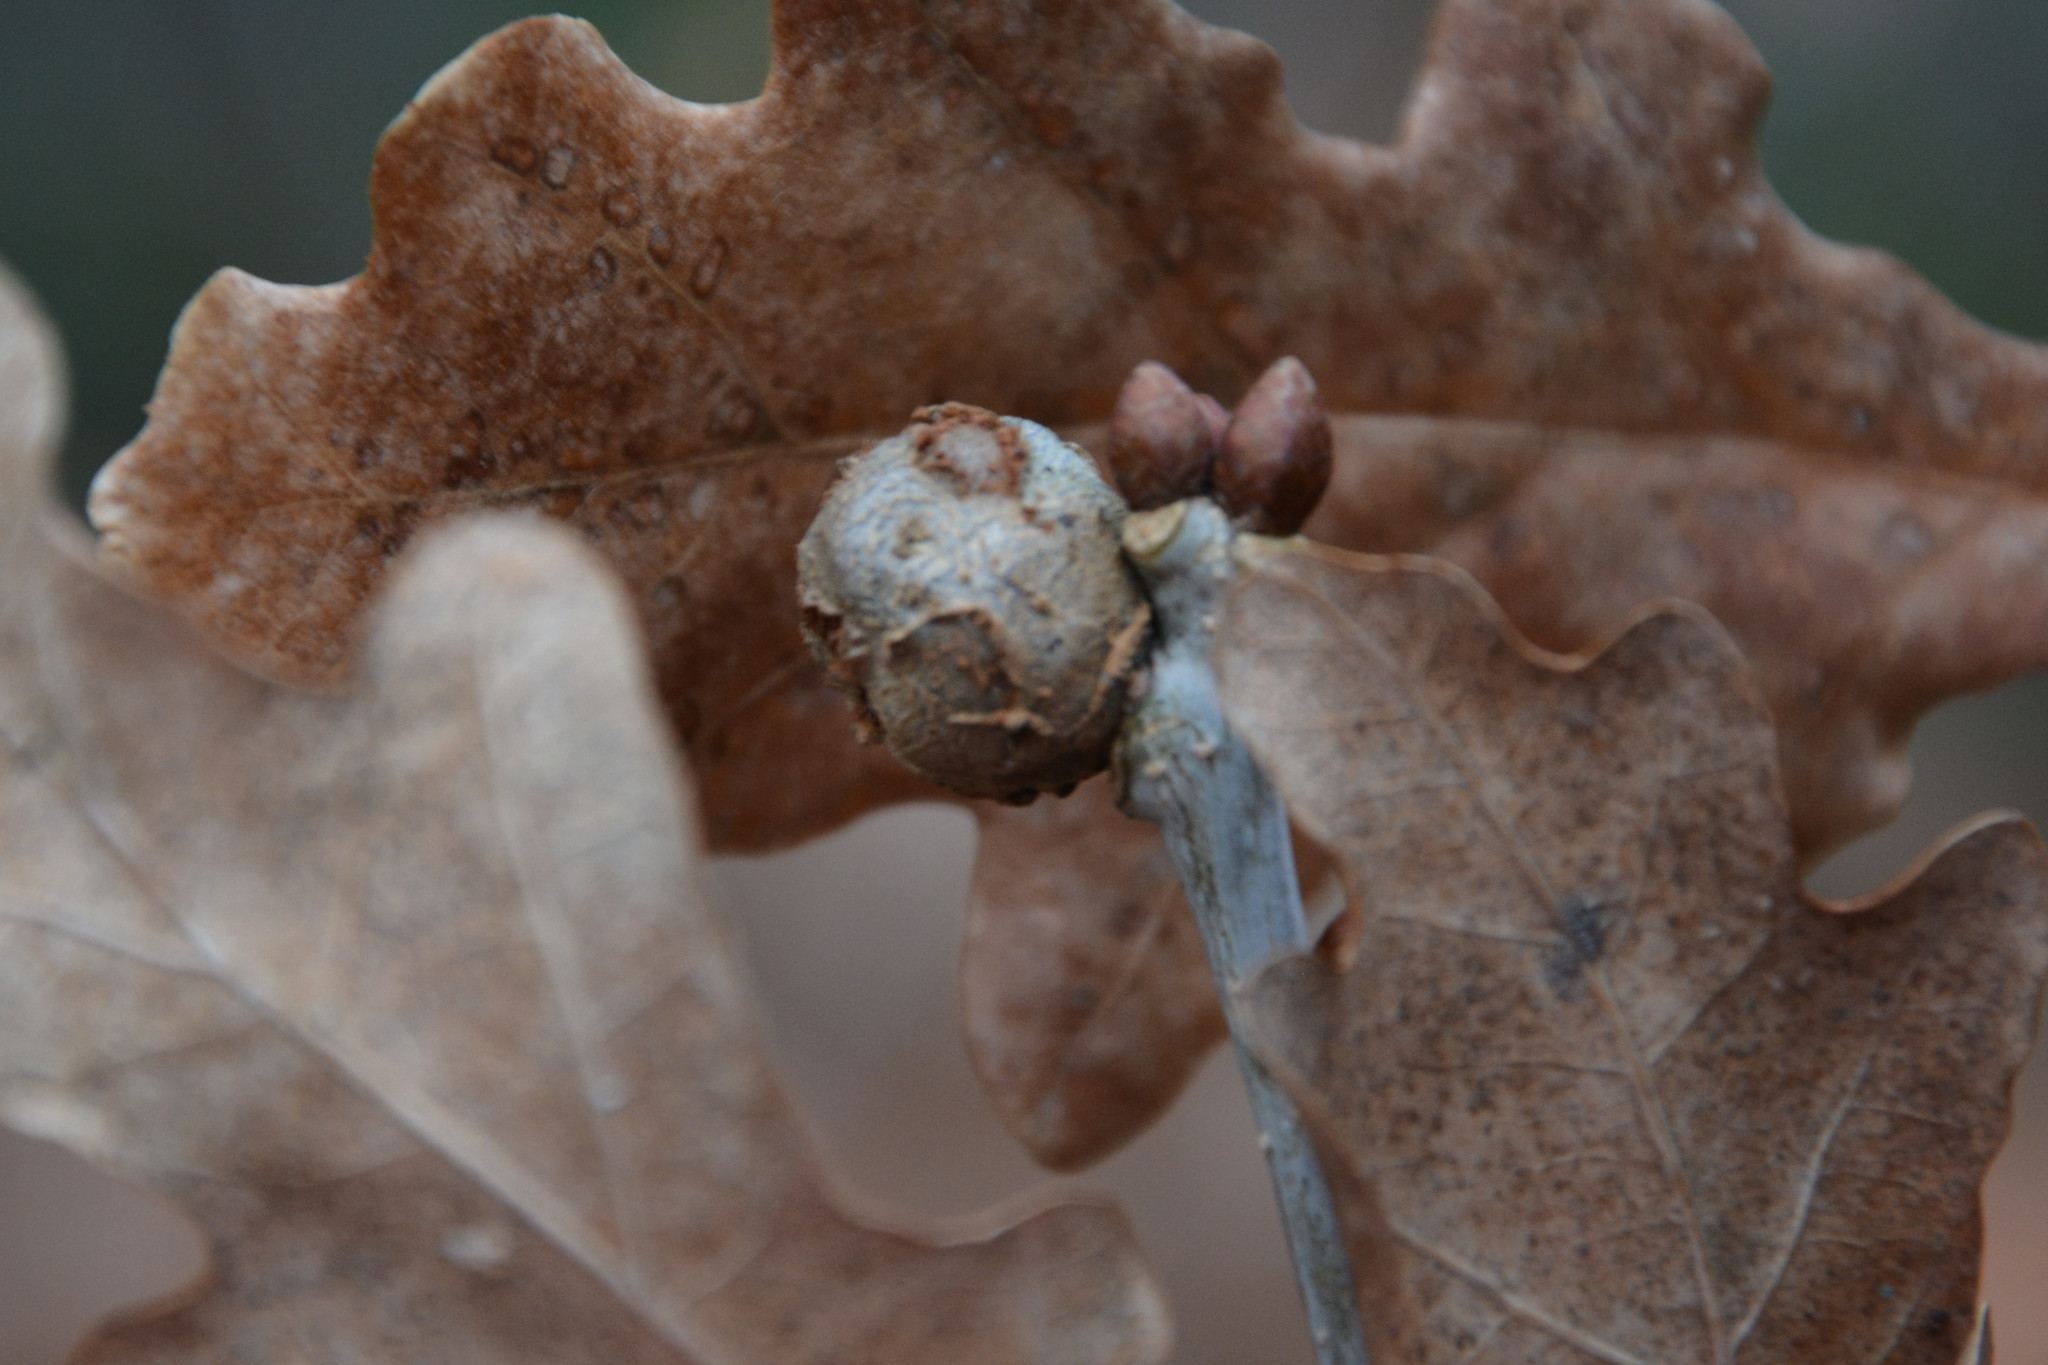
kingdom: Animalia
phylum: Arthropoda
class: Insecta
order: Hymenoptera
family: Cynipidae
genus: Andricus
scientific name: Andricus lignicolus
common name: Cola-nut gall
